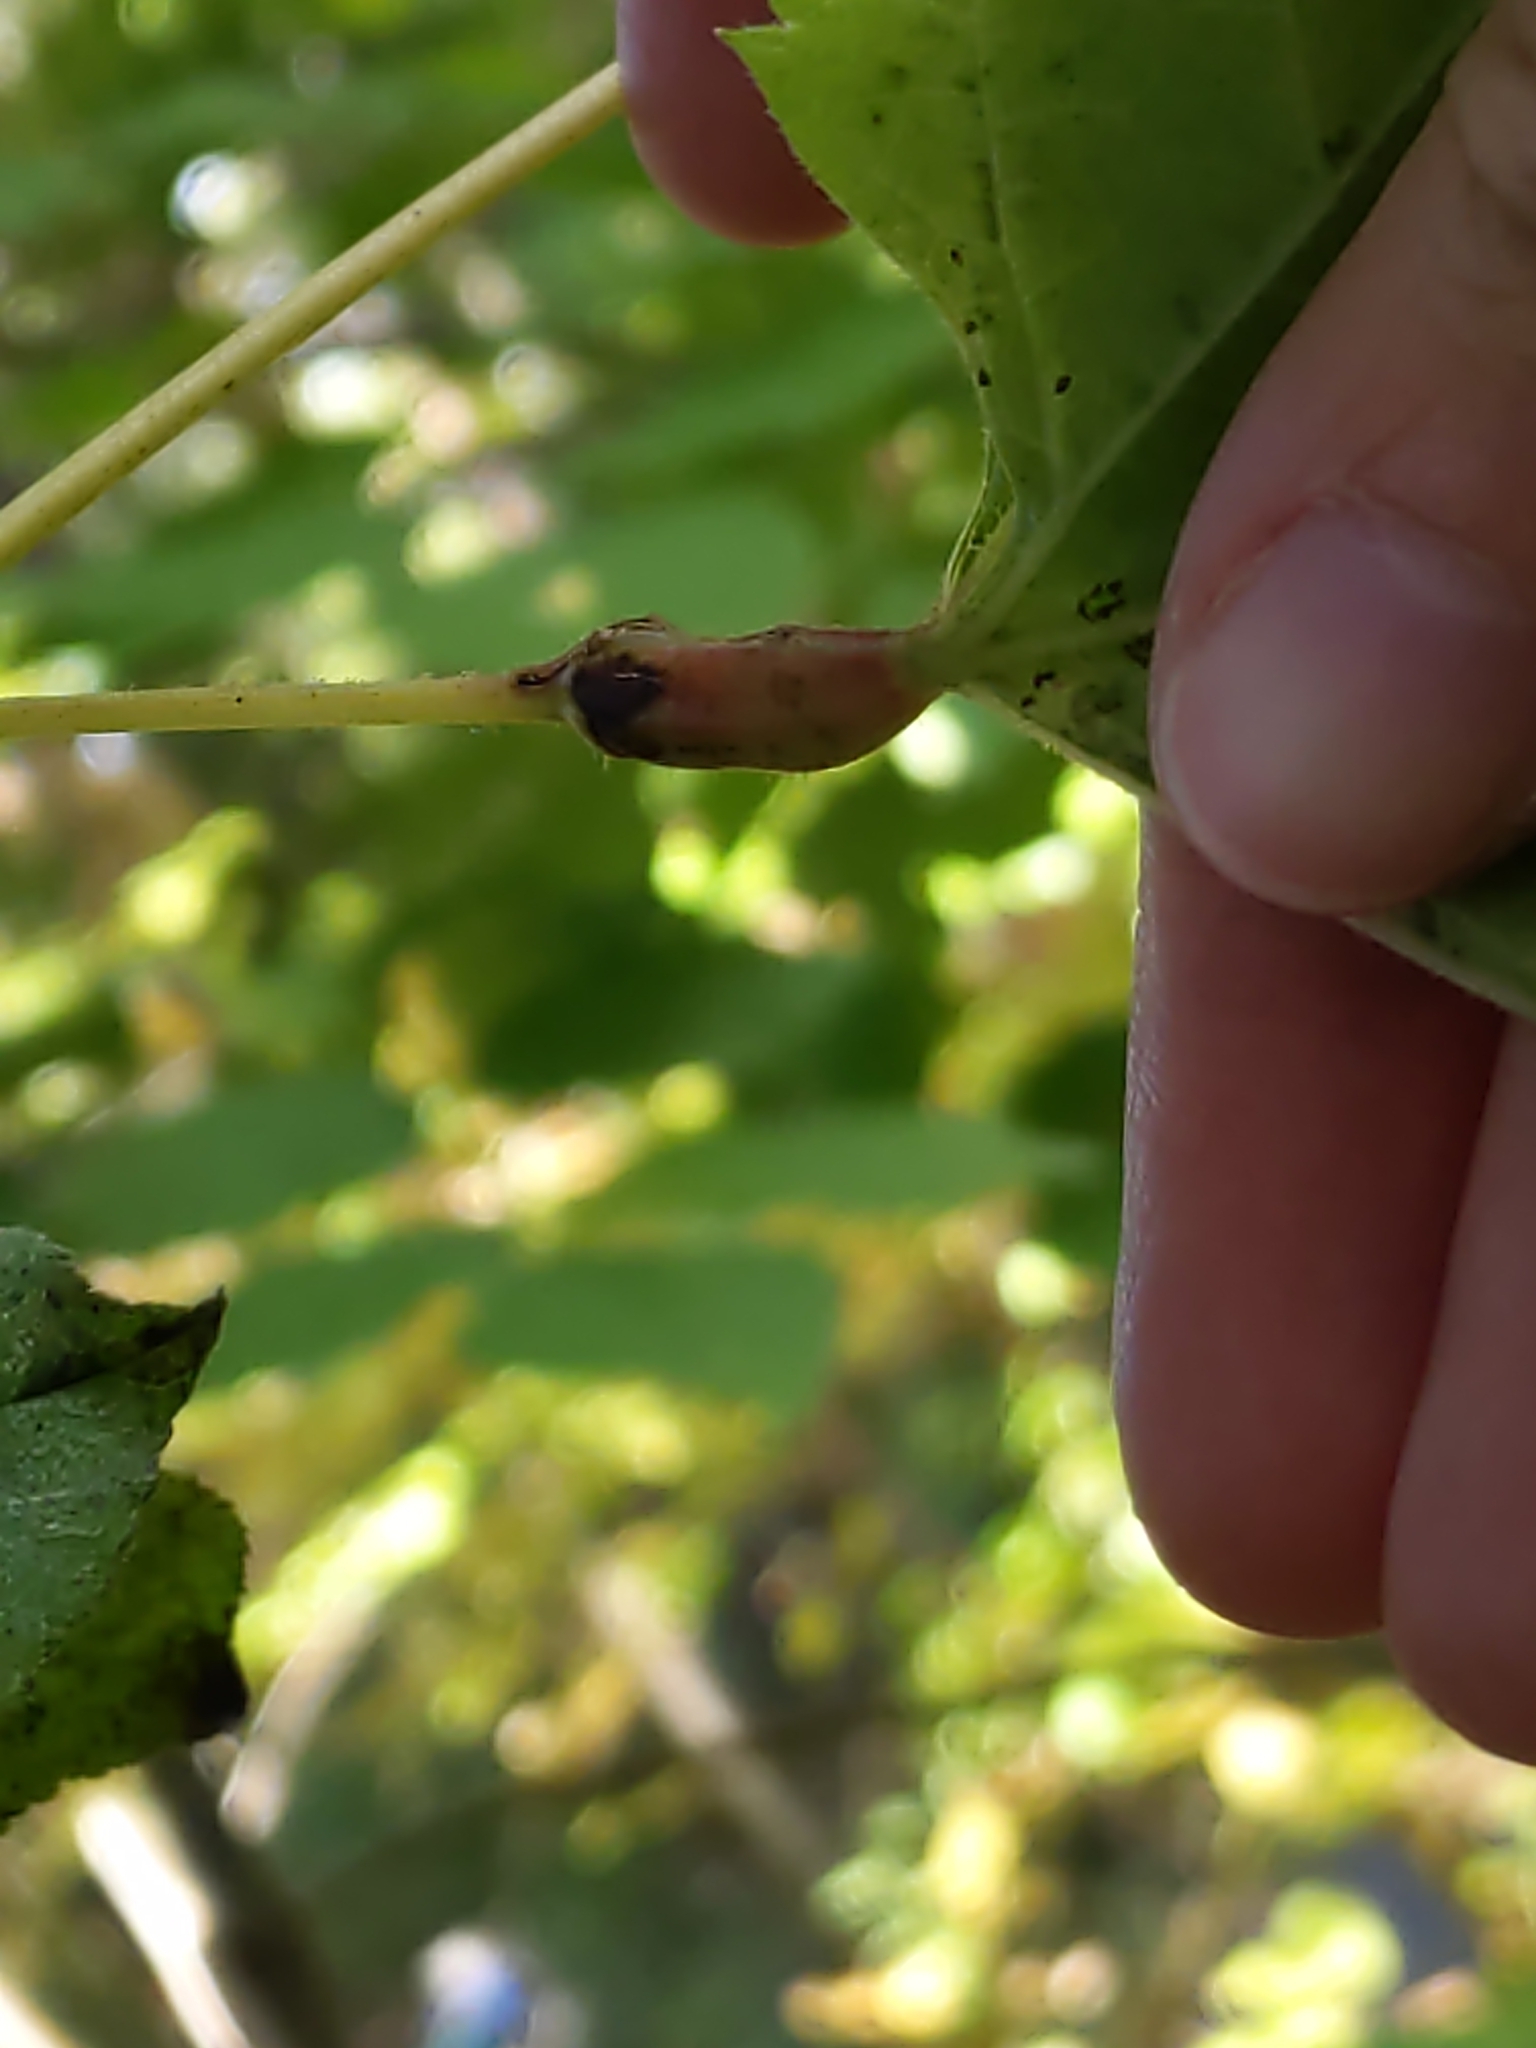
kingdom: Animalia
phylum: Arthropoda
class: Insecta
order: Diptera
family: Cecidomyiidae
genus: Neolasioptera
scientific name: Neolasioptera vitinea
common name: Grape leaf petiole gall
